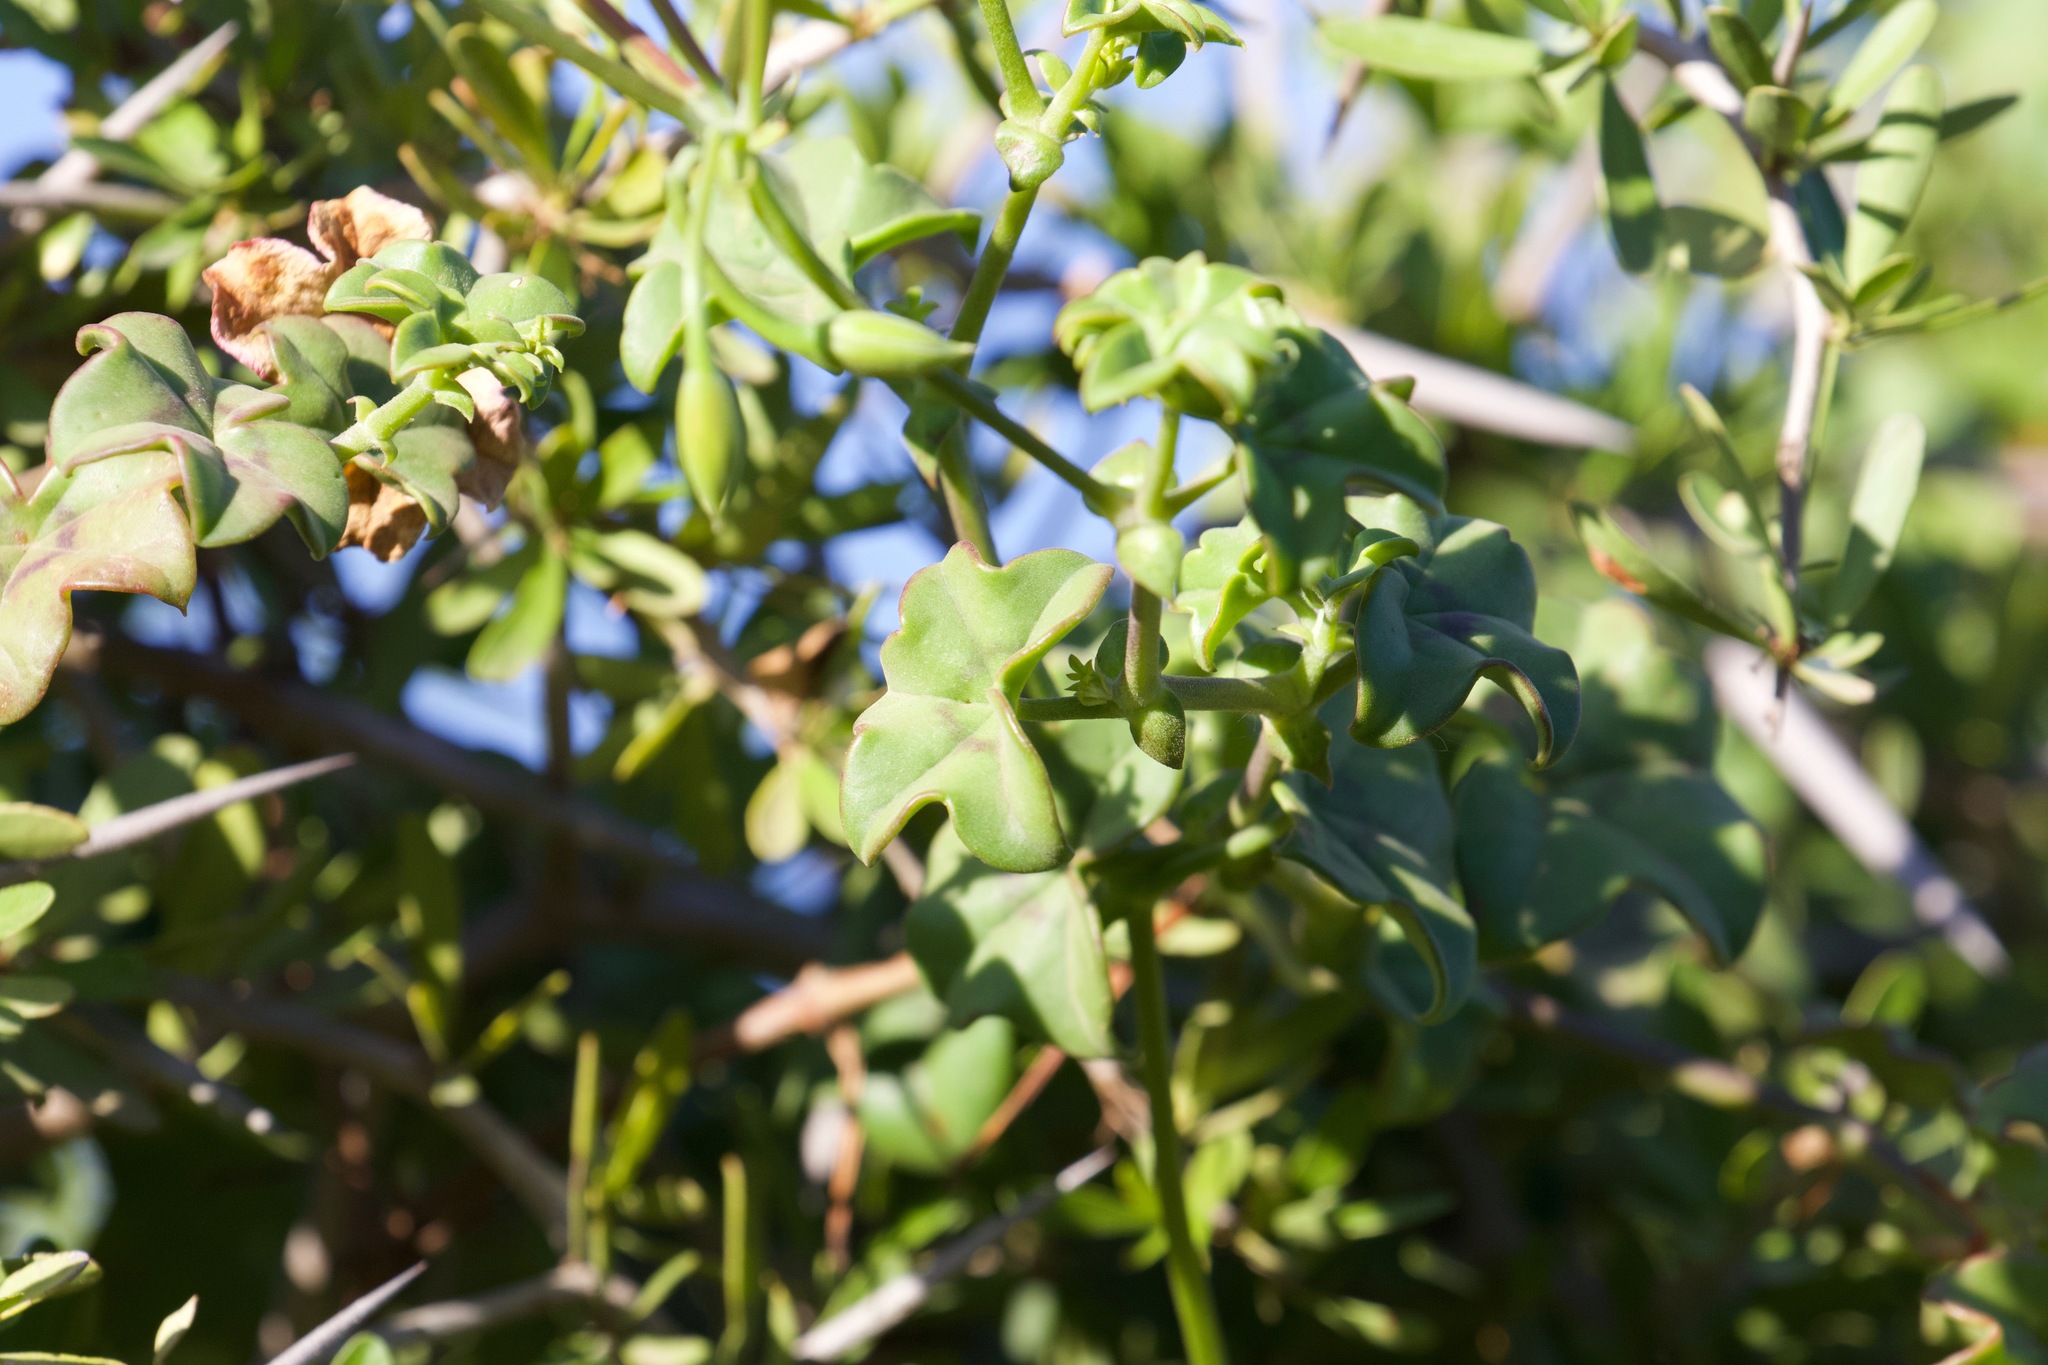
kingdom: Plantae
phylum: Tracheophyta
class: Magnoliopsida
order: Geraniales
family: Geraniaceae
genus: Pelargonium
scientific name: Pelargonium peltatum
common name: Ivyleaf geranium
